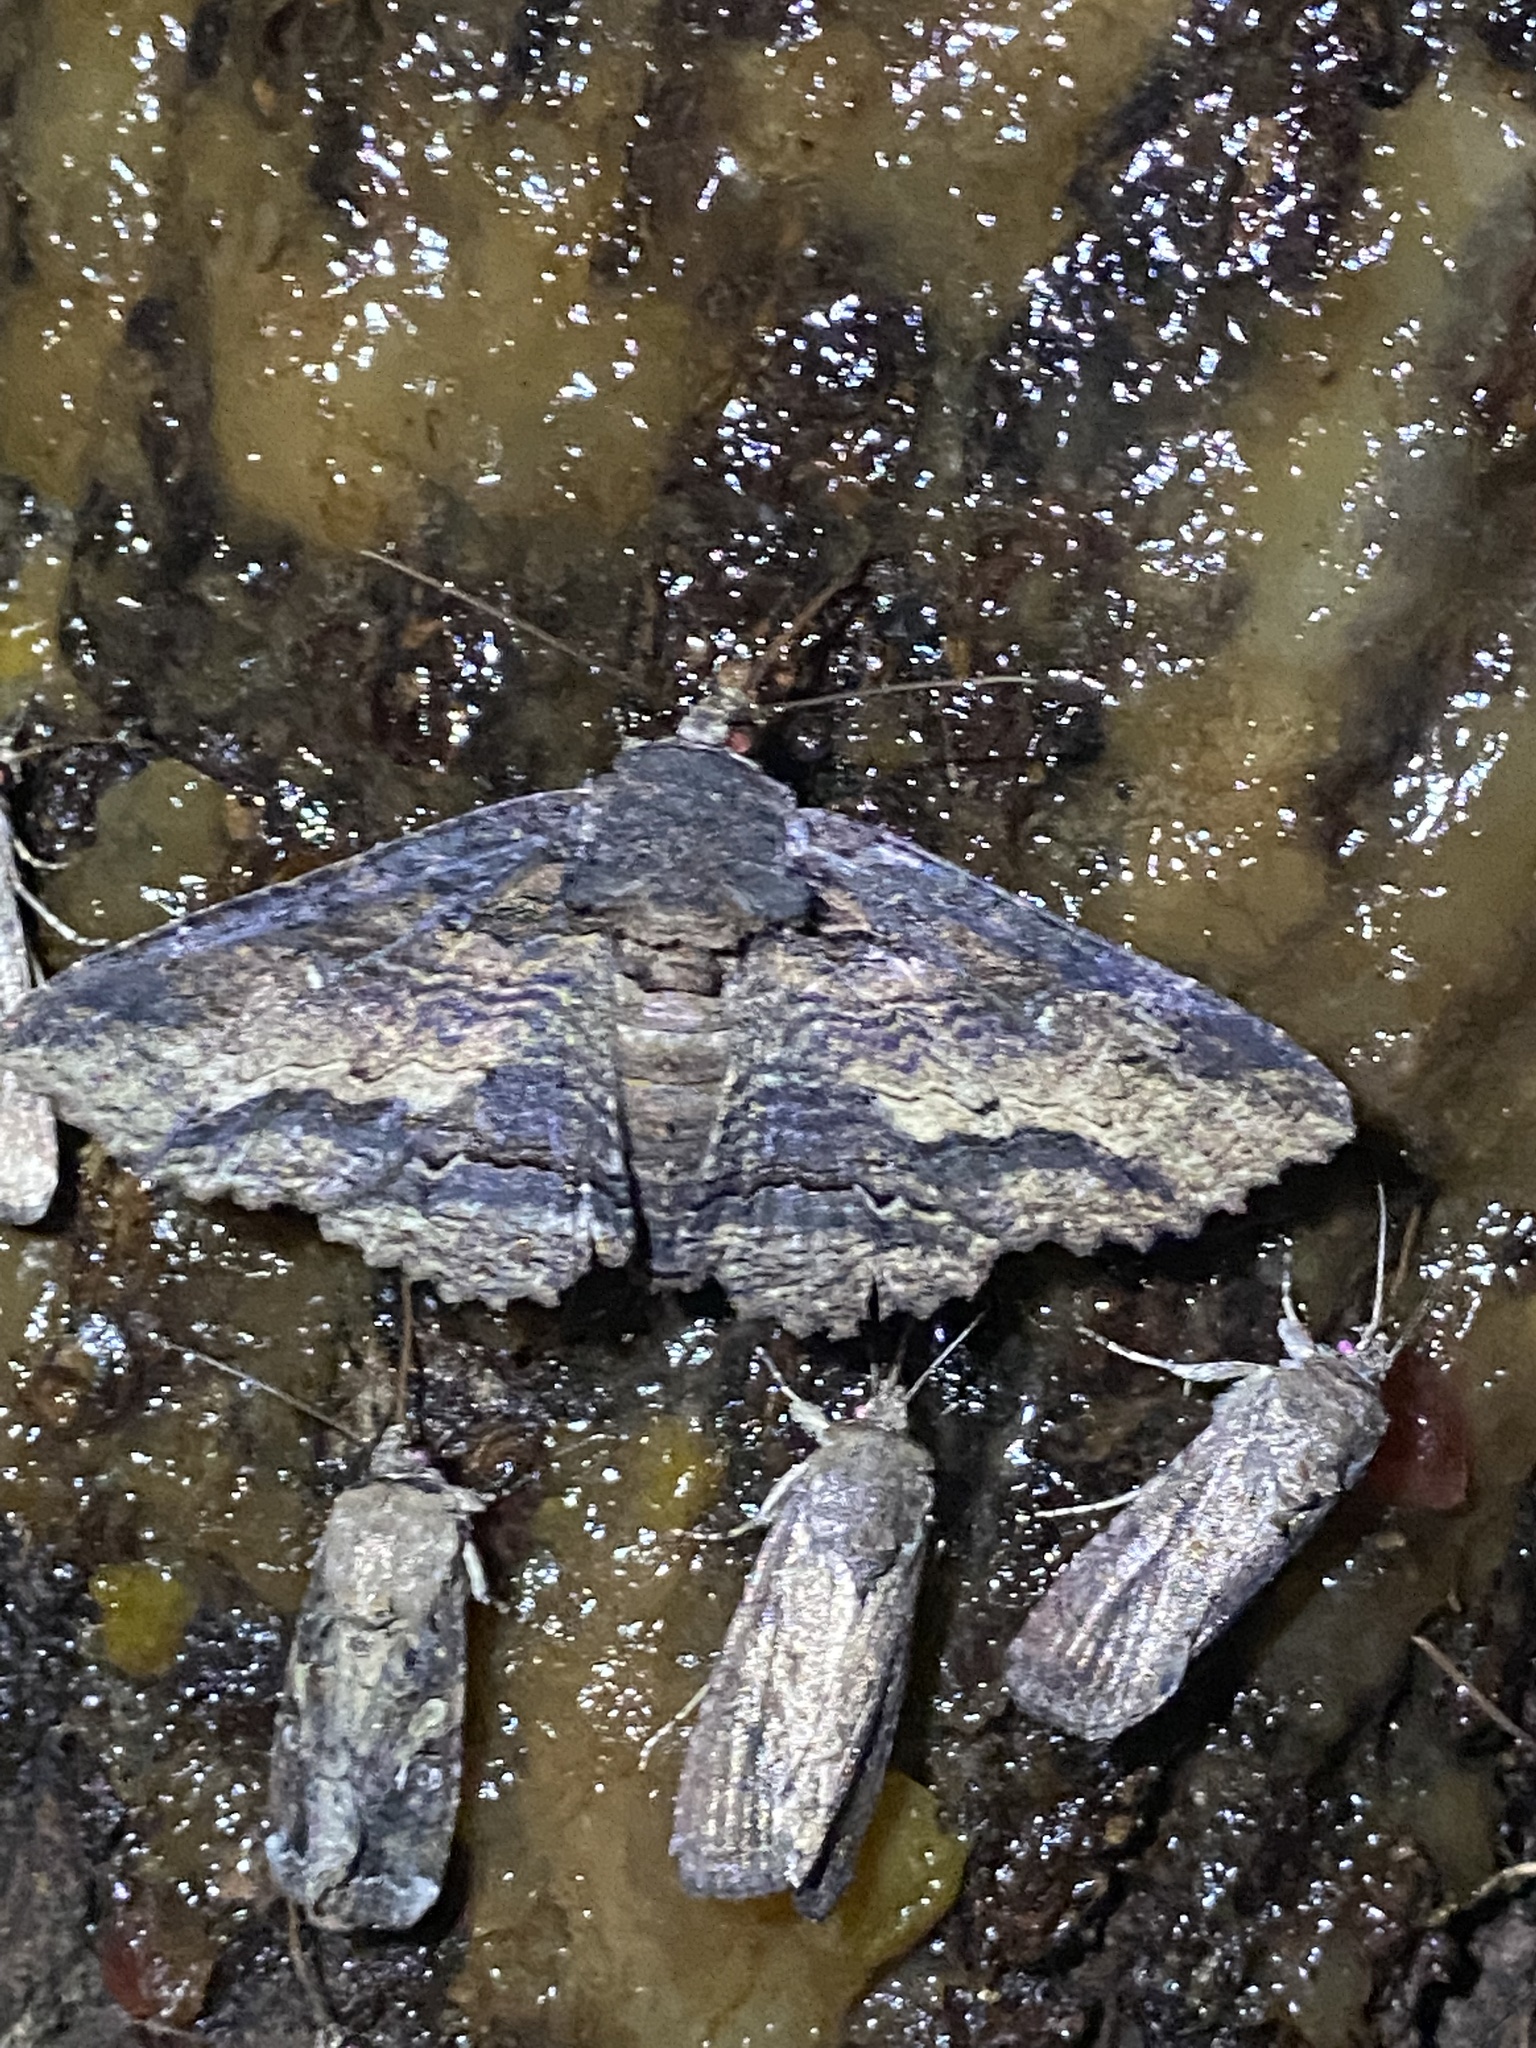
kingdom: Animalia
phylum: Arthropoda
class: Insecta
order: Lepidoptera
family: Erebidae
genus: Zale
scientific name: Zale lunata
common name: Lunate zale moth
